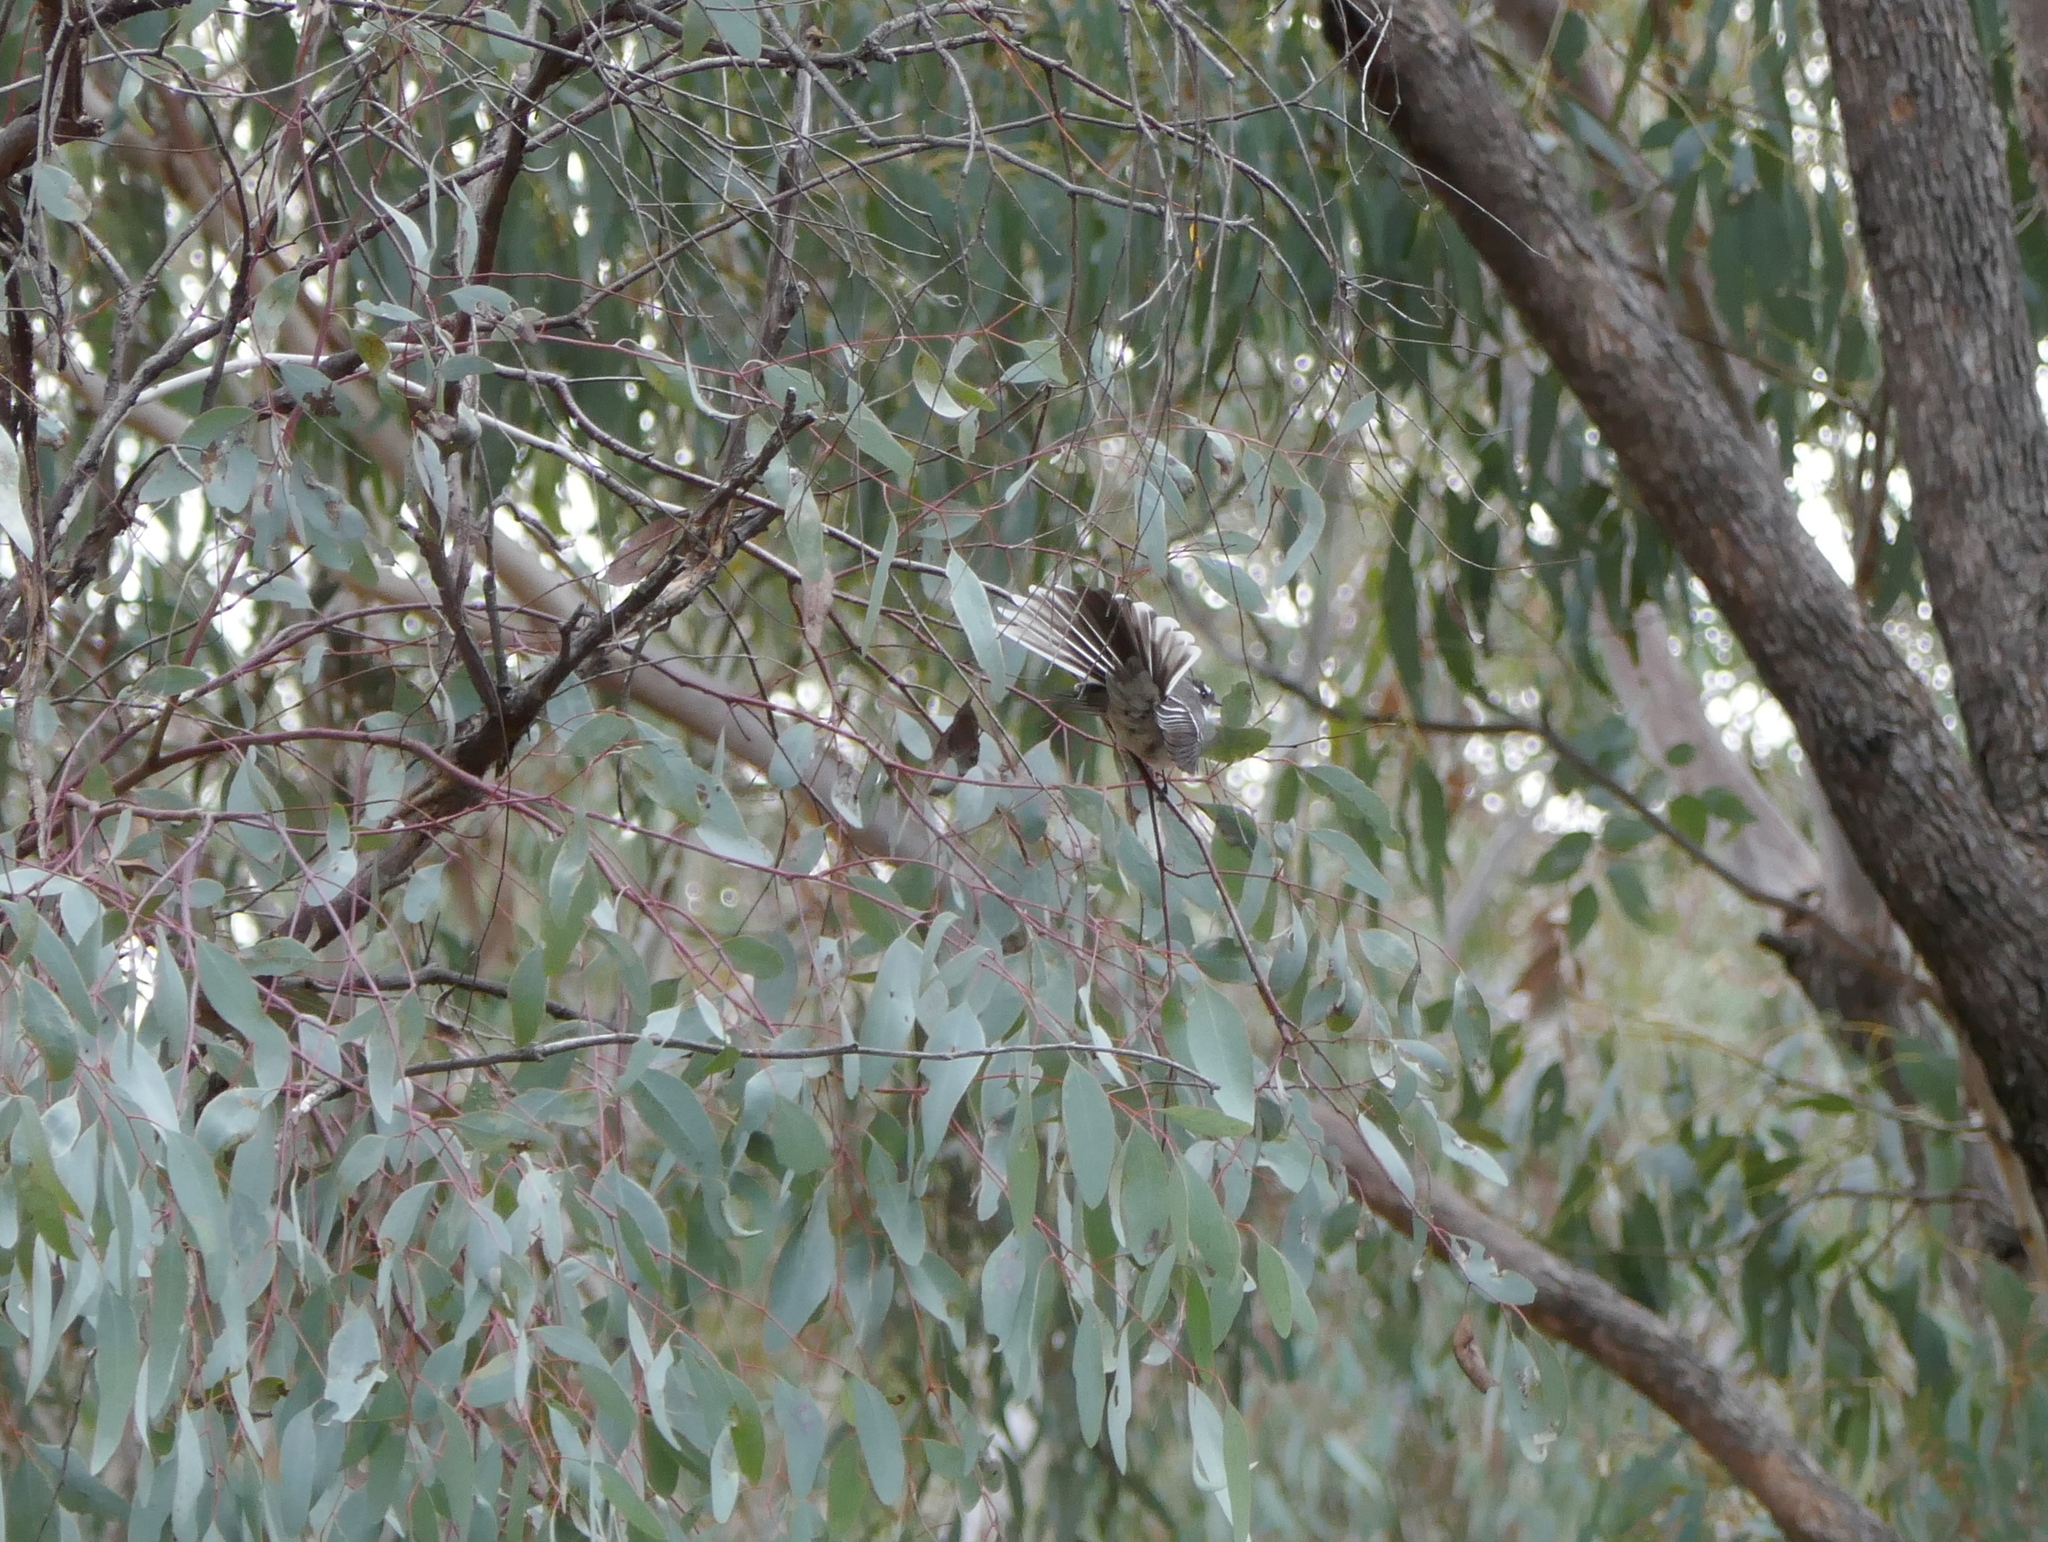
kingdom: Animalia
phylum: Chordata
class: Aves
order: Passeriformes
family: Rhipiduridae
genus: Rhipidura
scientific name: Rhipidura albiscapa
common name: Grey fantail
